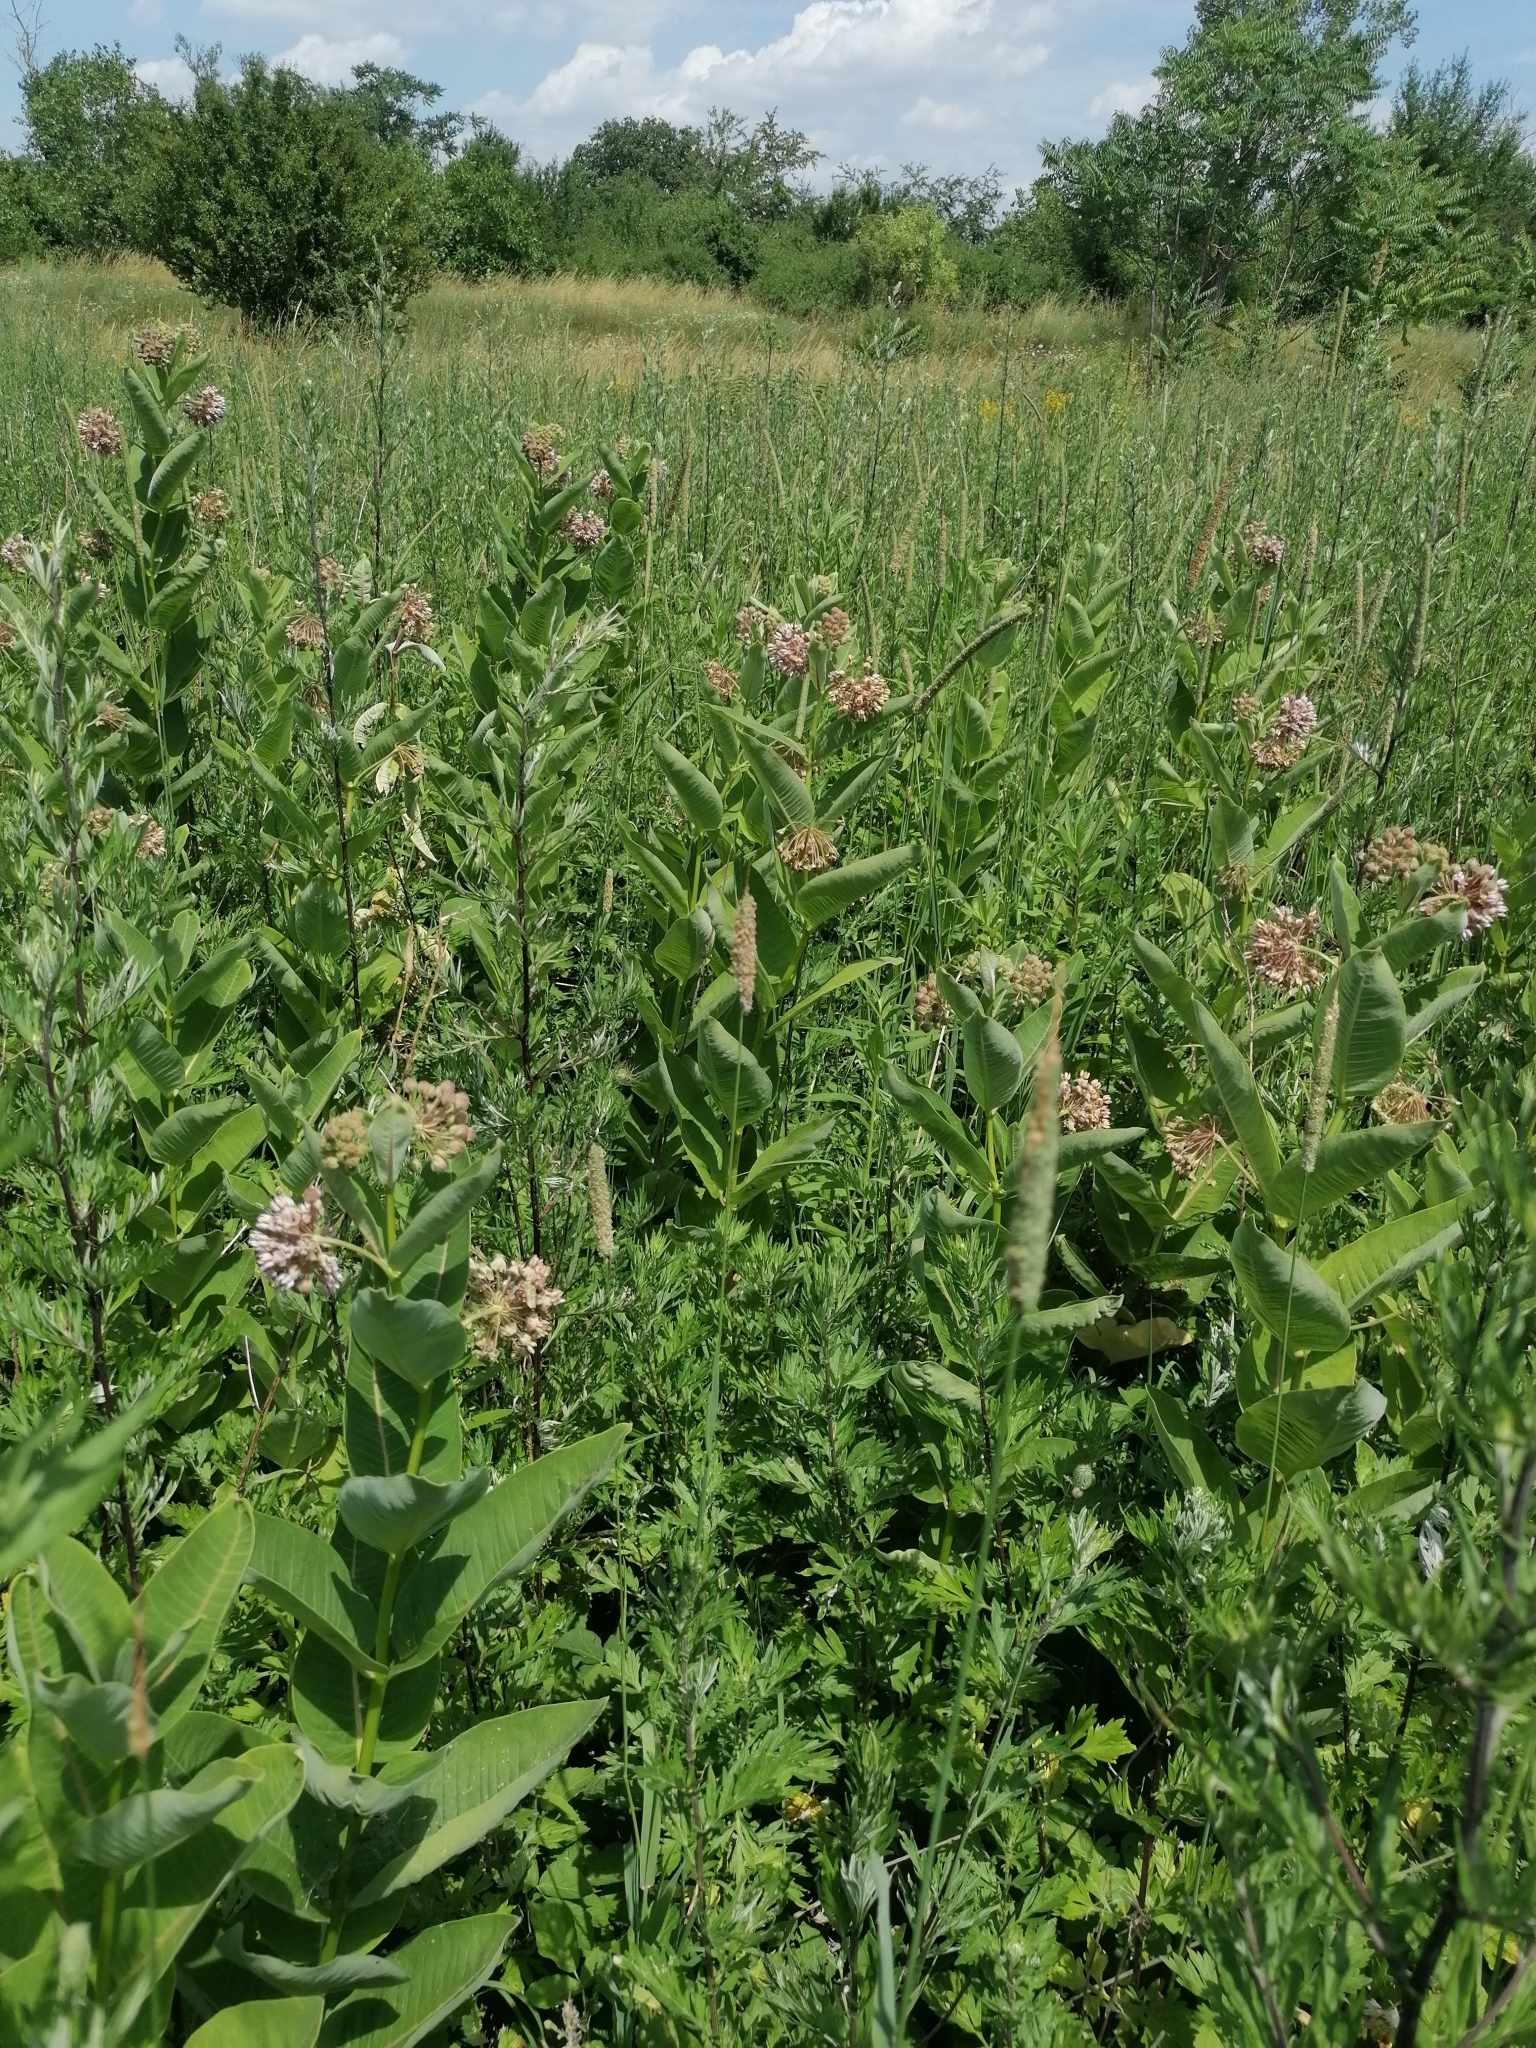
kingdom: Plantae
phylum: Tracheophyta
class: Magnoliopsida
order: Gentianales
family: Apocynaceae
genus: Asclepias
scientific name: Asclepias syriaca
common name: Common milkweed
